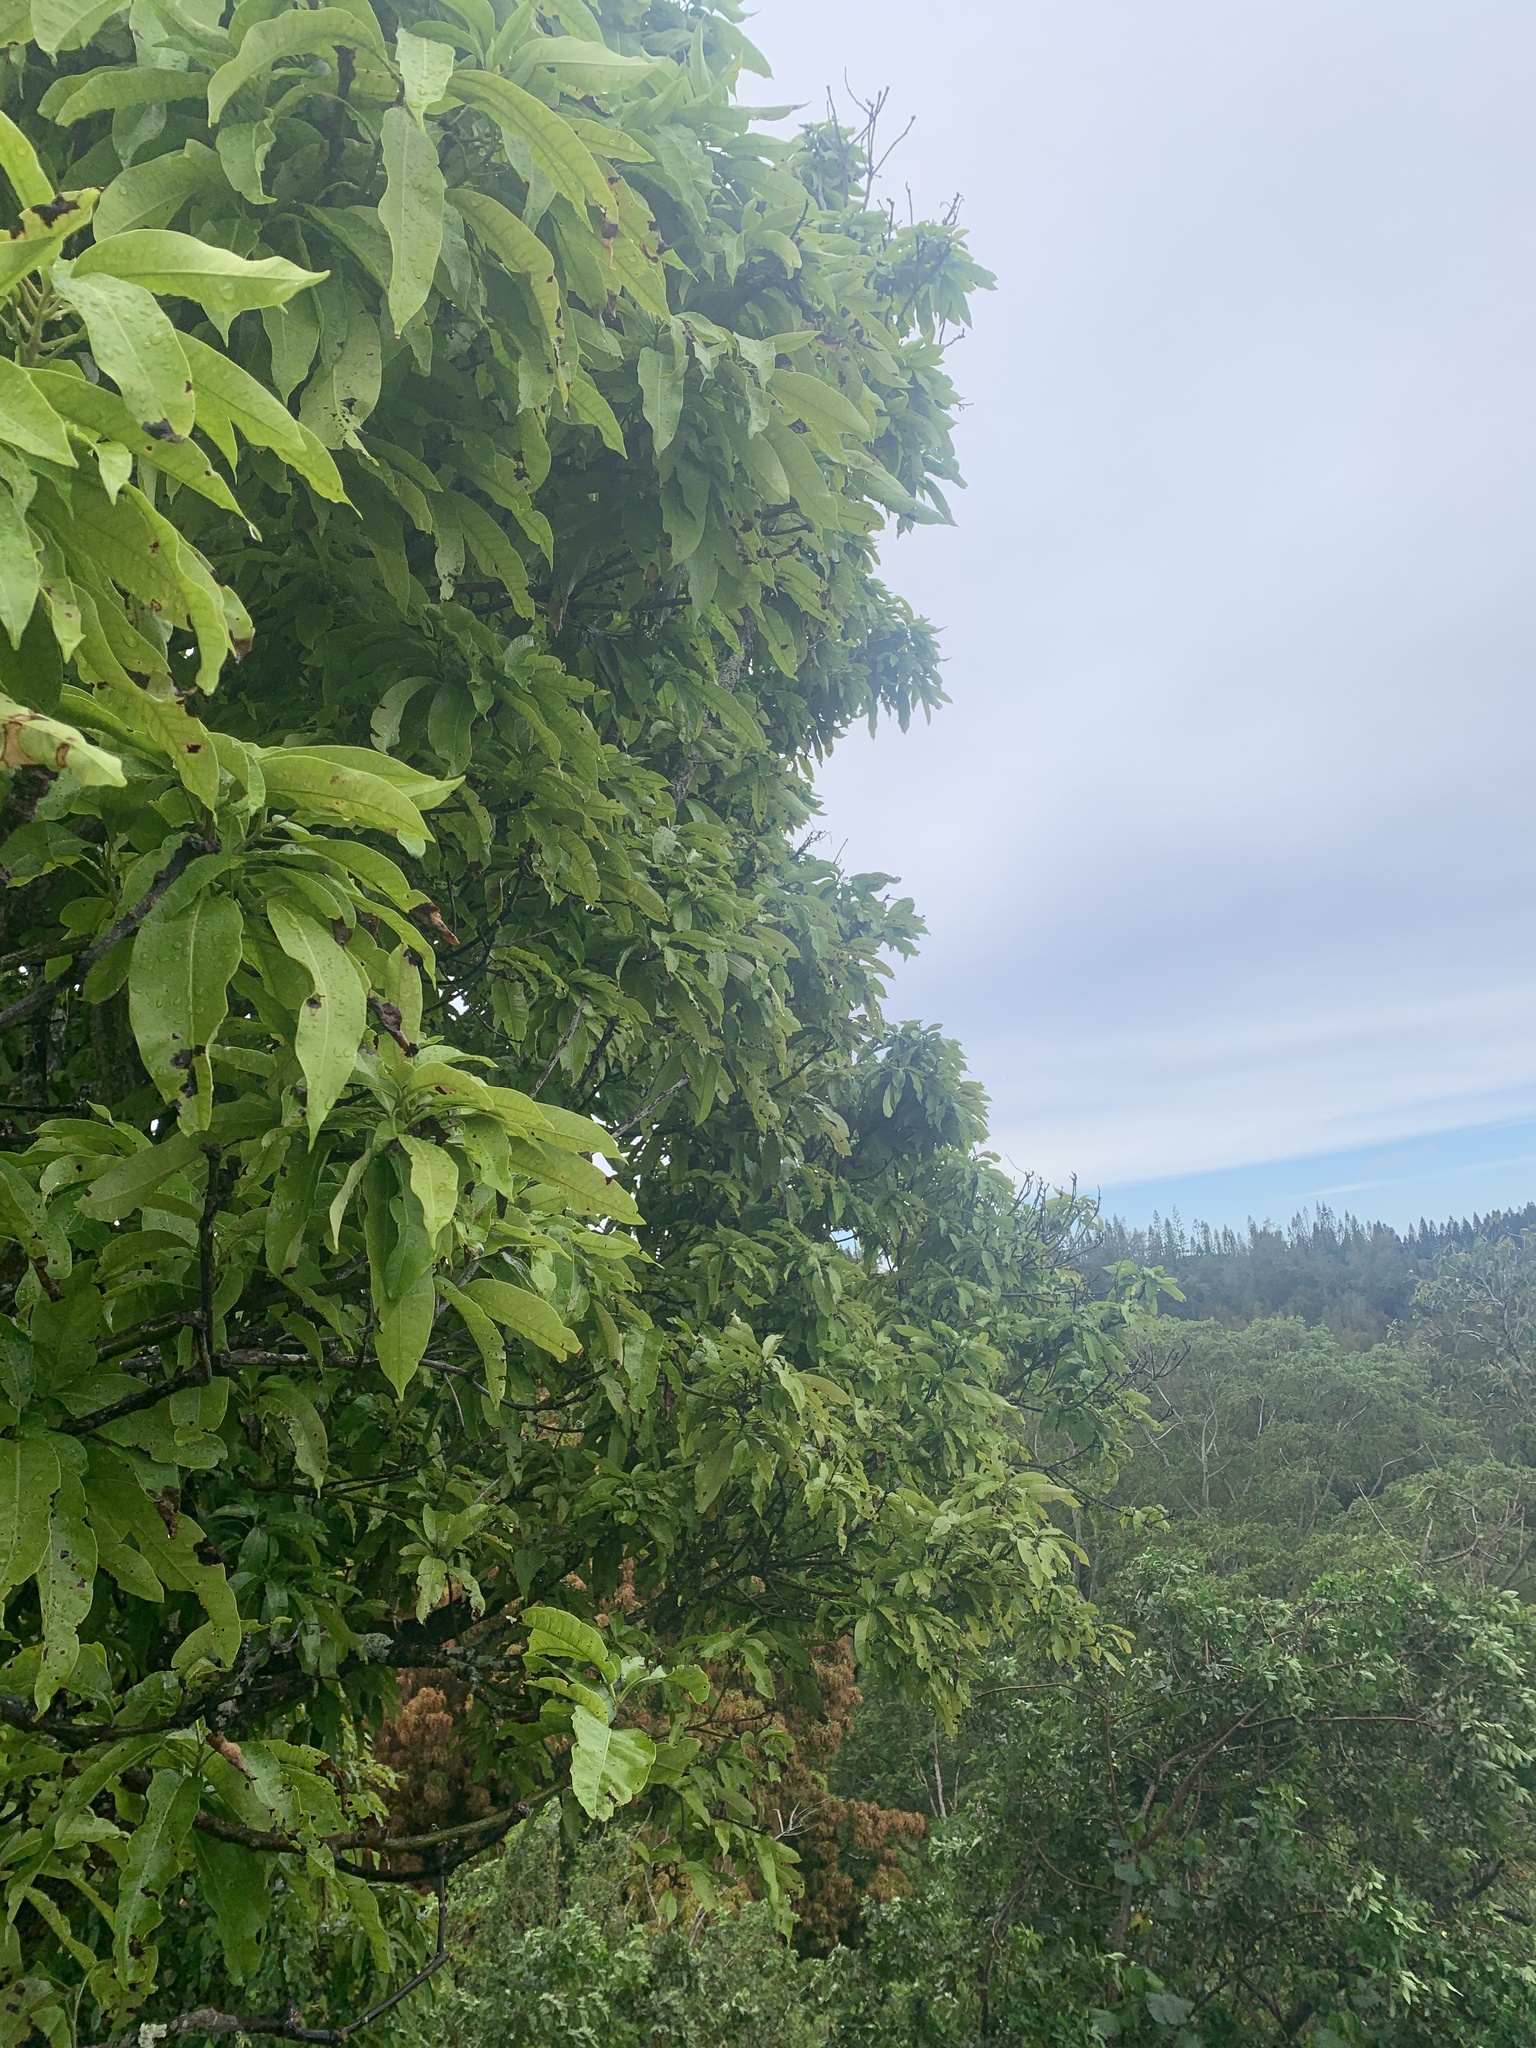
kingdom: Plantae
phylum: Tracheophyta
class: Magnoliopsida
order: Sapindales
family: Anacardiaceae
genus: Mangifera
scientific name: Mangifera indica
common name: Mango
